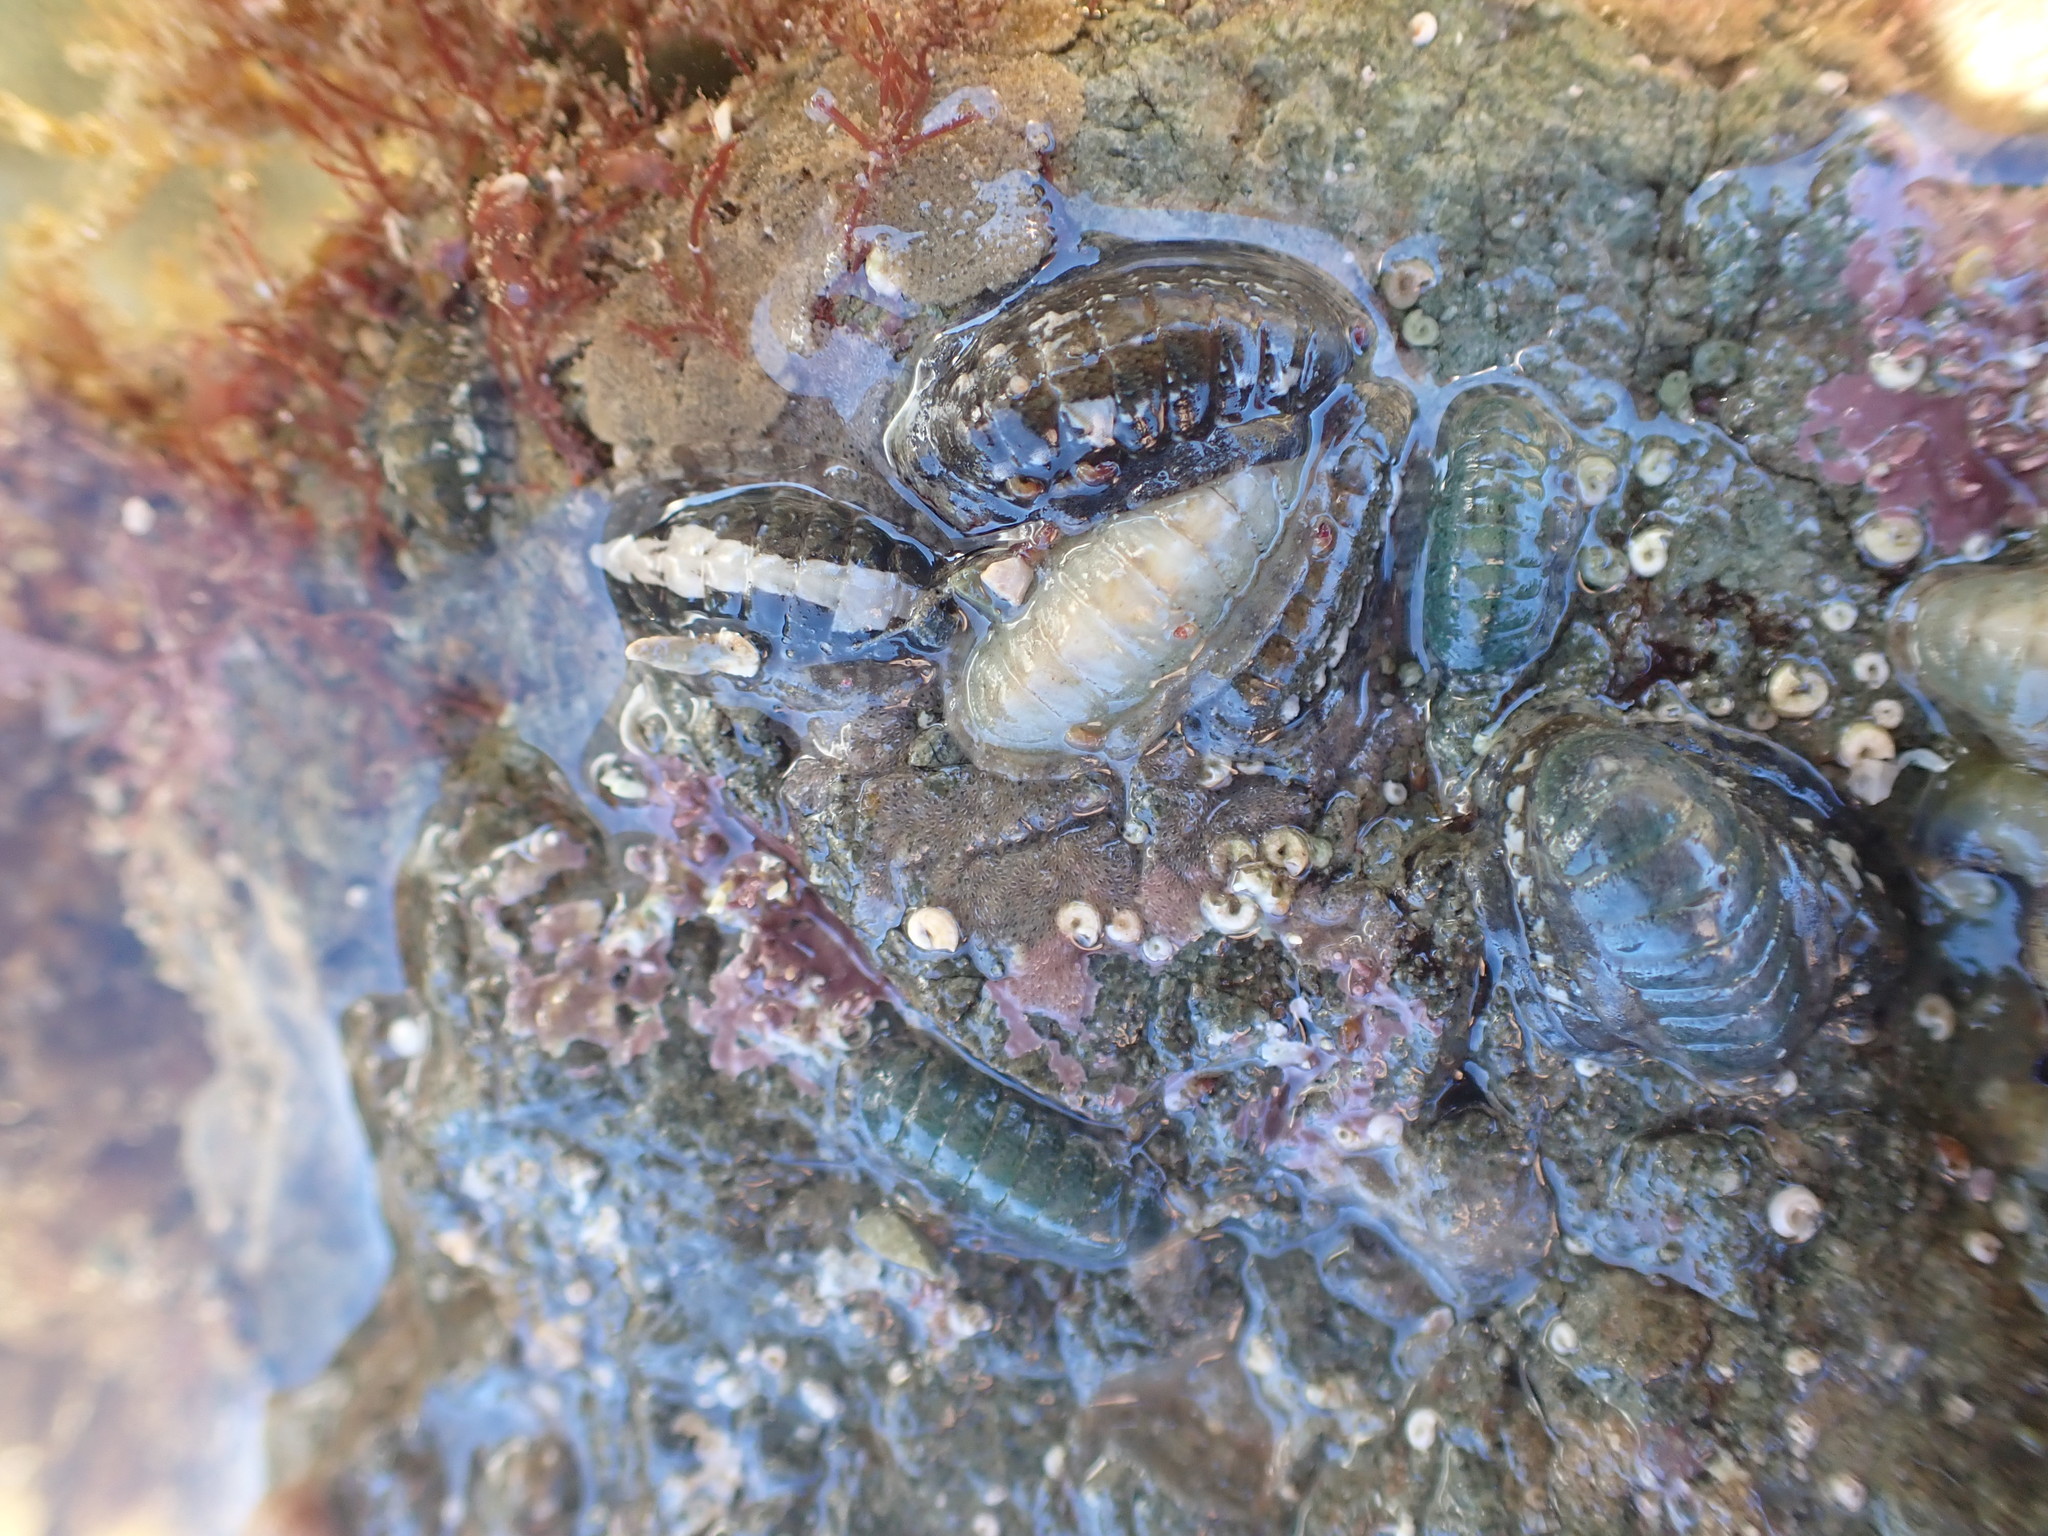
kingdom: Animalia
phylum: Mollusca
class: Polyplacophora
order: Chitonida
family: Ischnochitonidae
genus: Ischnochiton
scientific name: Ischnochiton maorianus
